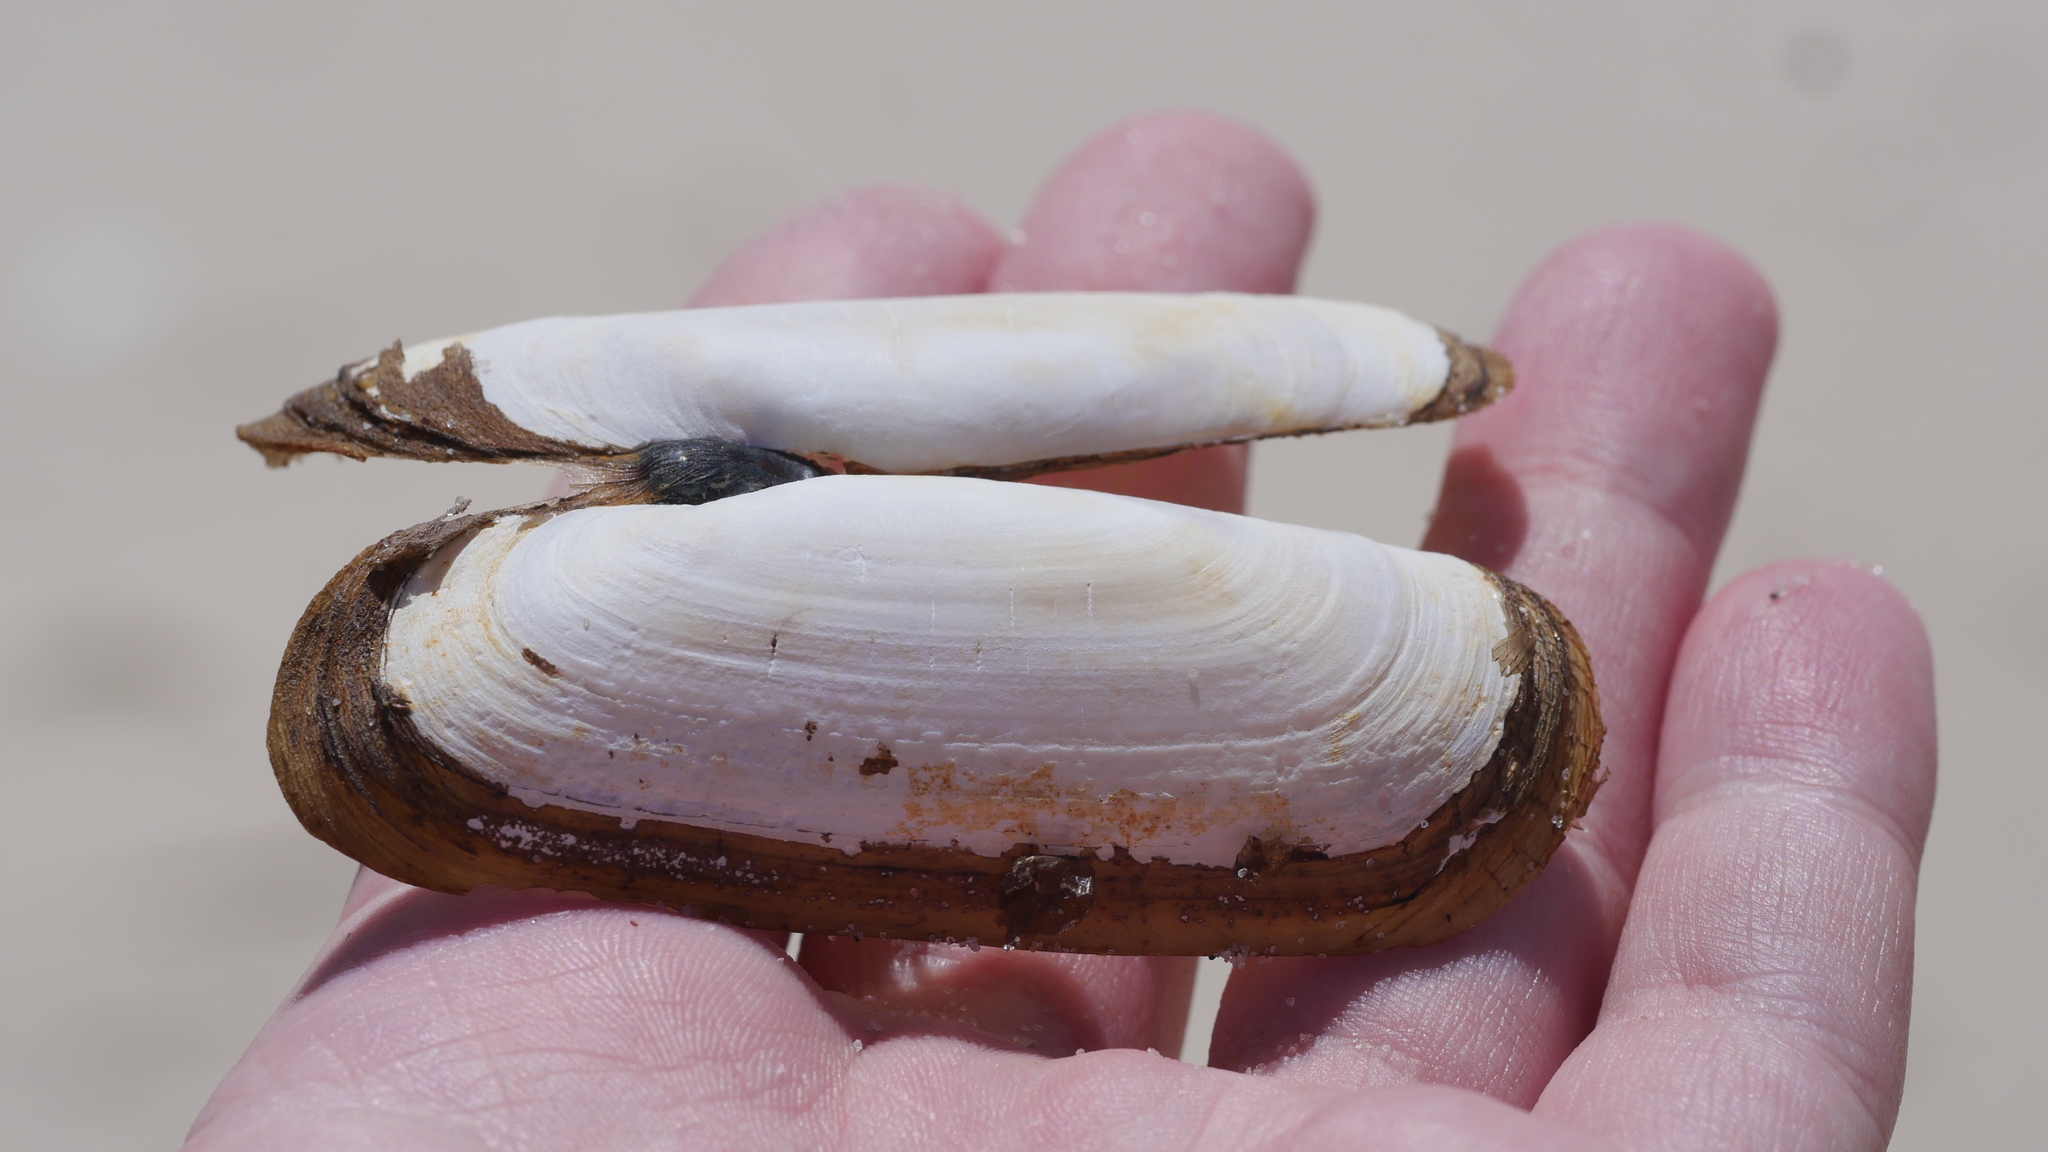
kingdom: Animalia
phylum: Mollusca
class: Bivalvia
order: Cardiida
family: Solecurtidae
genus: Tagelus
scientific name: Tagelus plebeius
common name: Stout tagelus
